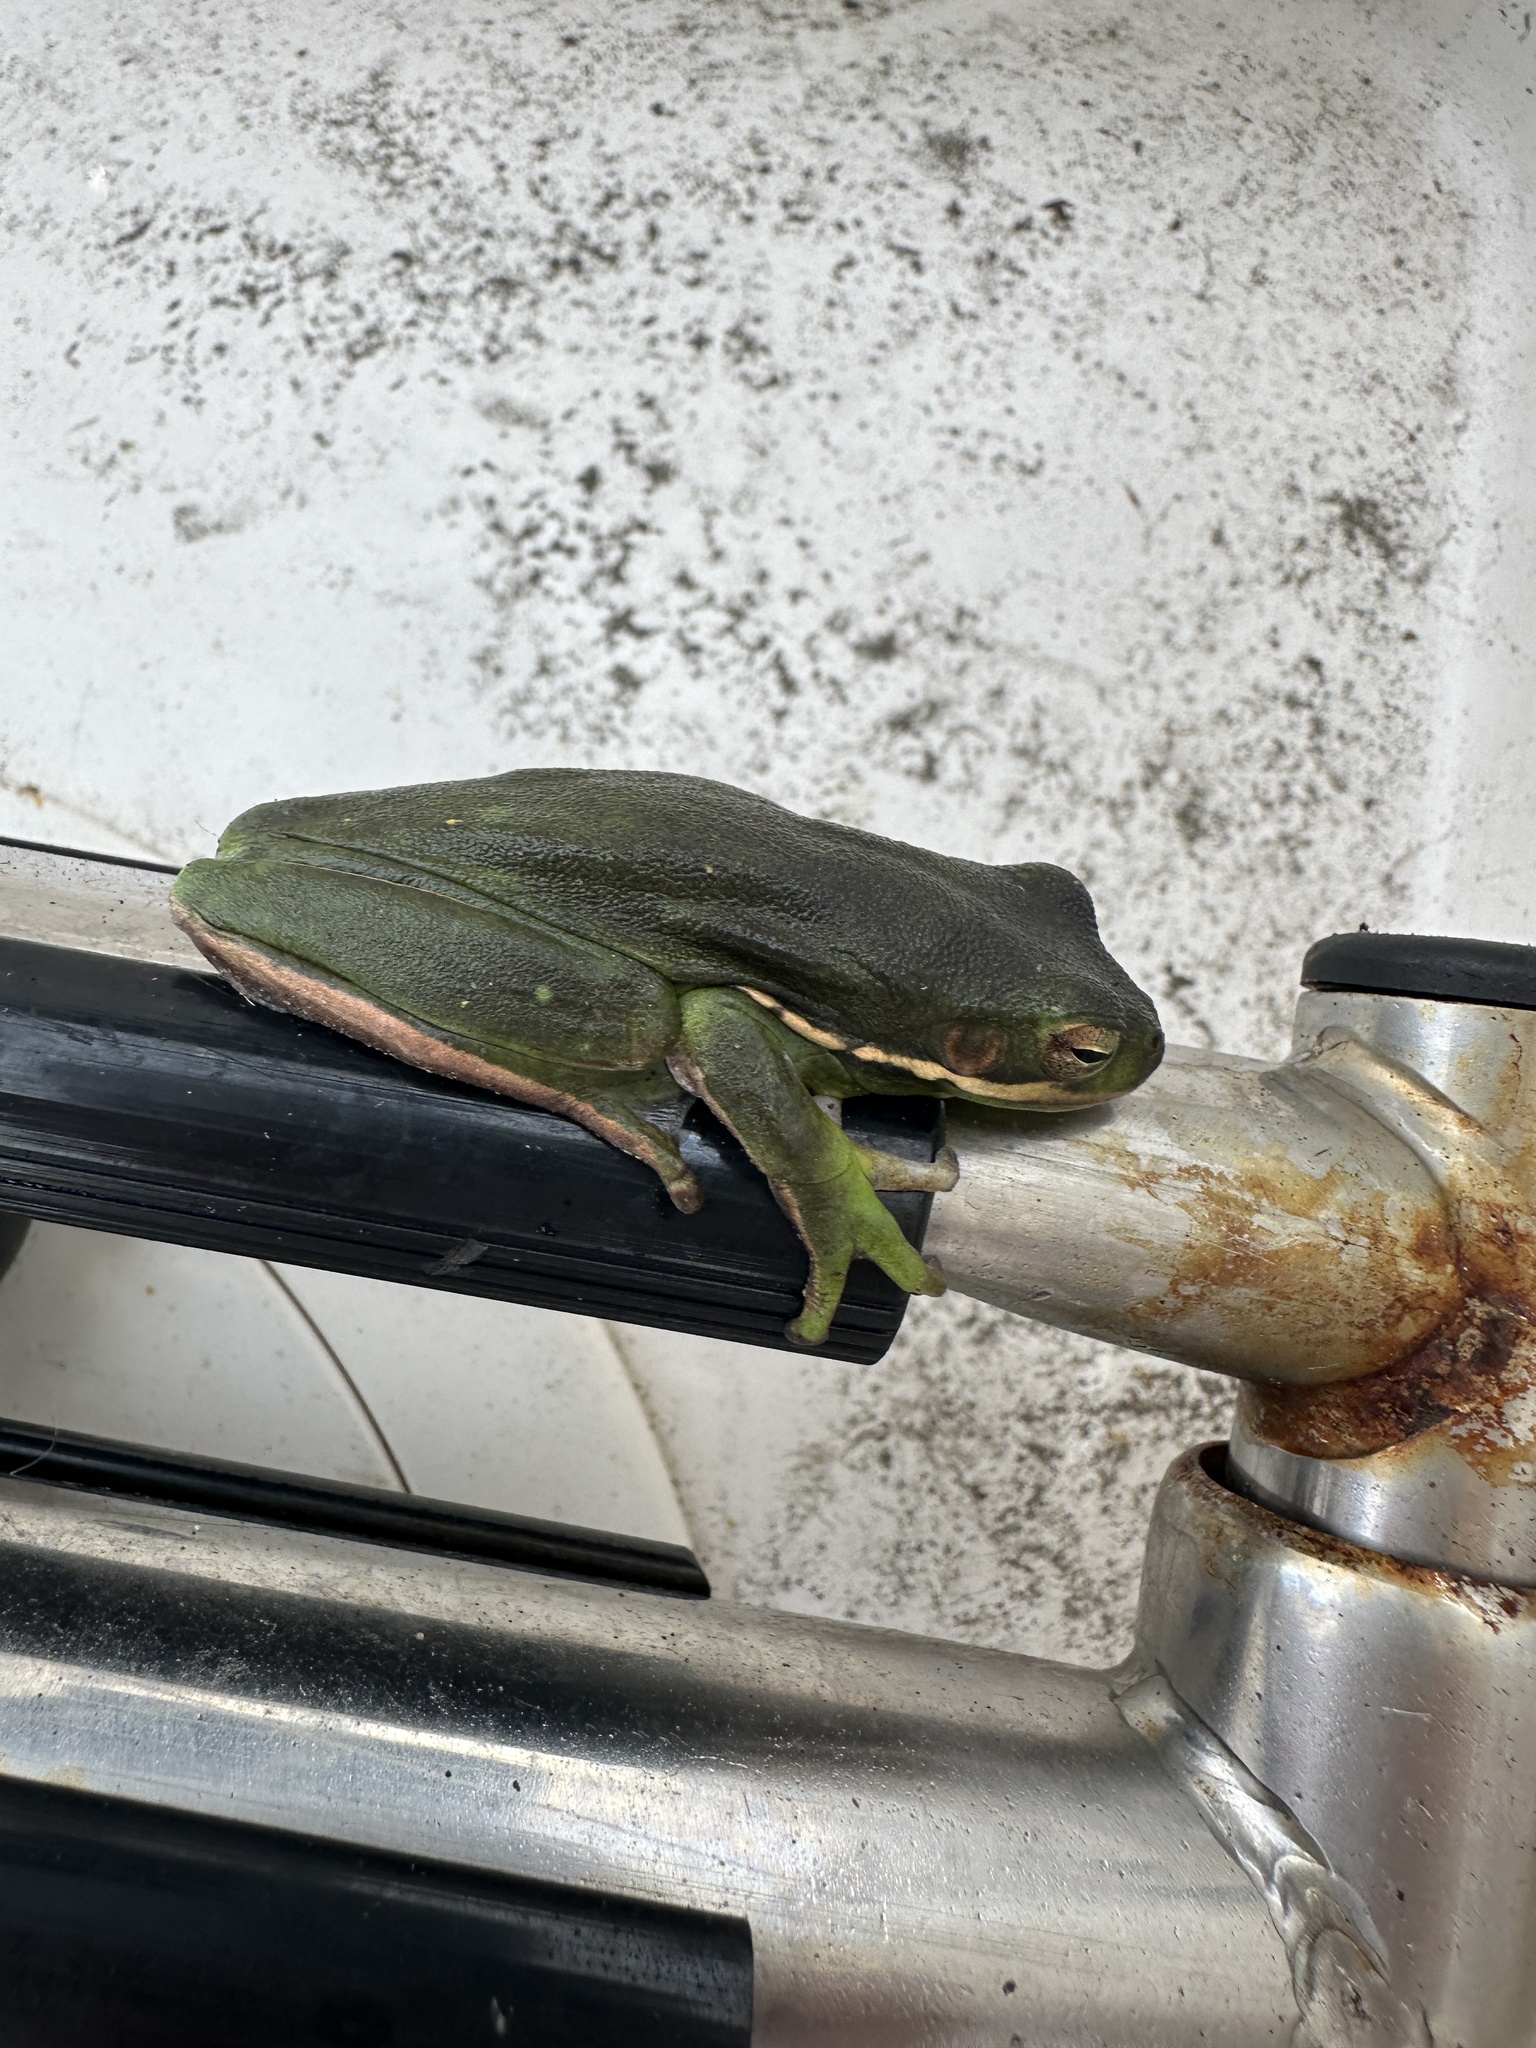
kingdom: Animalia
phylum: Chordata
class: Amphibia
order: Anura
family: Hylidae
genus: Dryophytes
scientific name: Dryophytes cinereus
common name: Green treefrog
